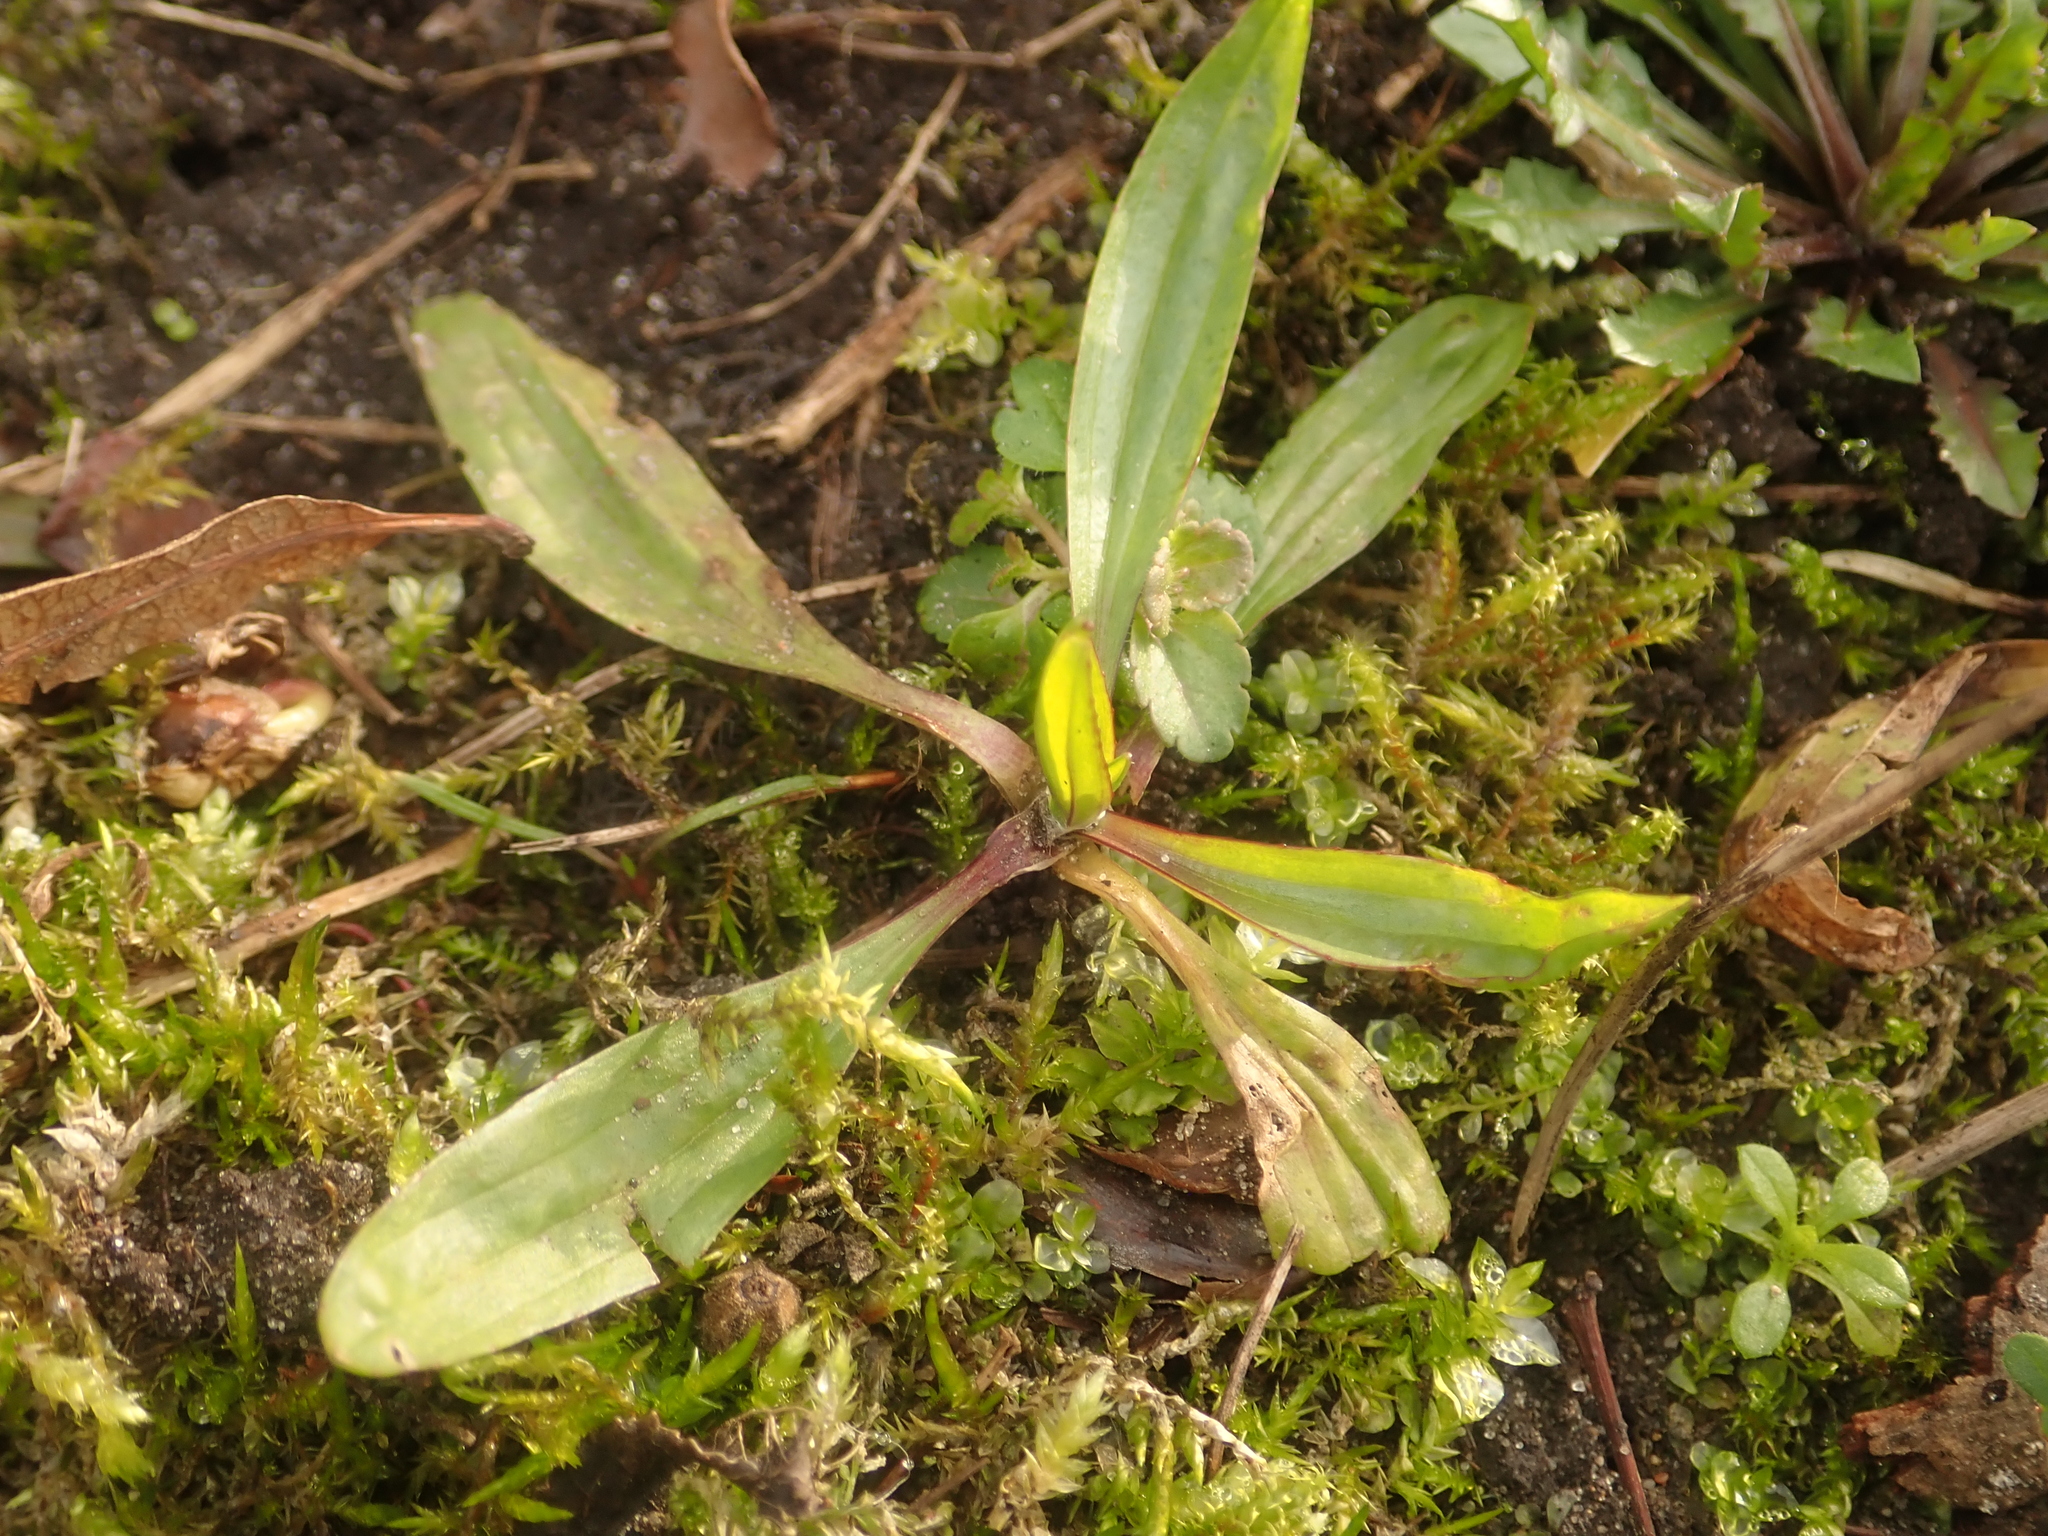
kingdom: Plantae
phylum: Tracheophyta
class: Magnoliopsida
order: Lamiales
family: Plantaginaceae
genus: Plantago
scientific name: Plantago lanceolata
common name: Ribwort plantain
